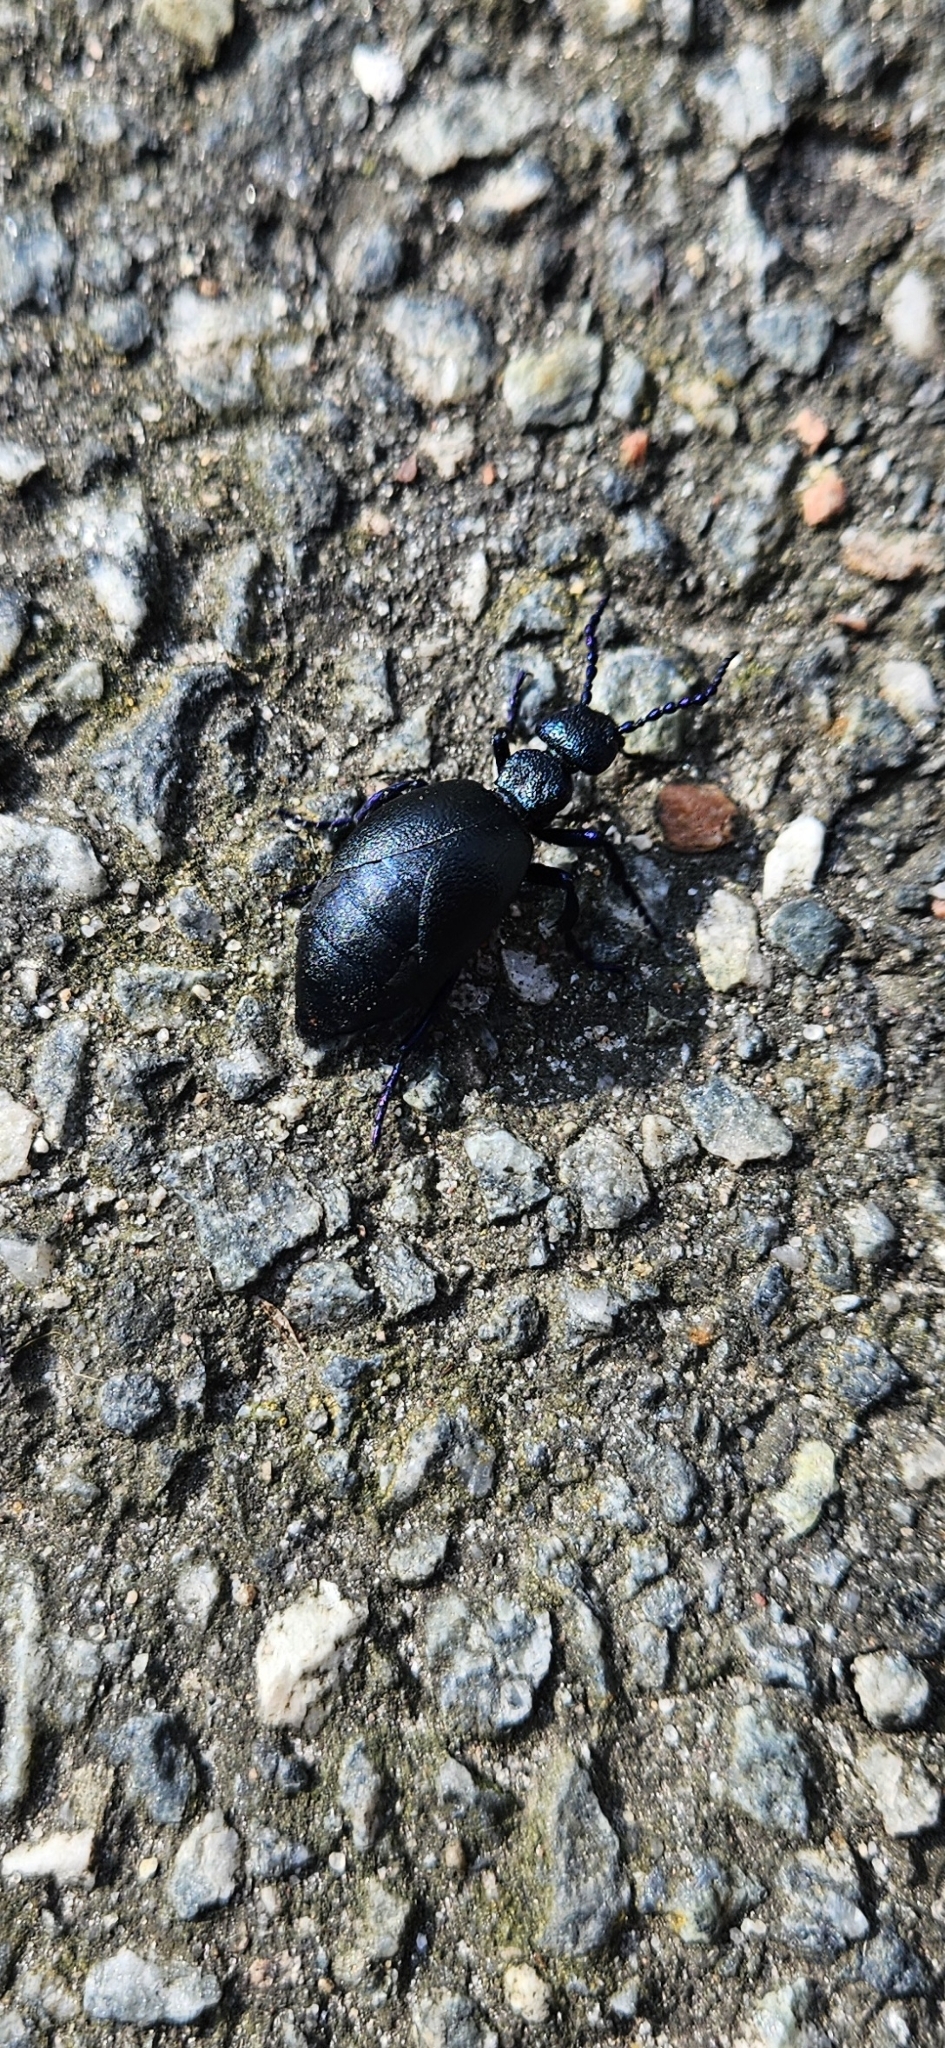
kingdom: Animalia
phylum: Arthropoda
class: Insecta
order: Coleoptera
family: Meloidae
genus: Meloe
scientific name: Meloe proscarabaeus
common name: Black oil-beetle
